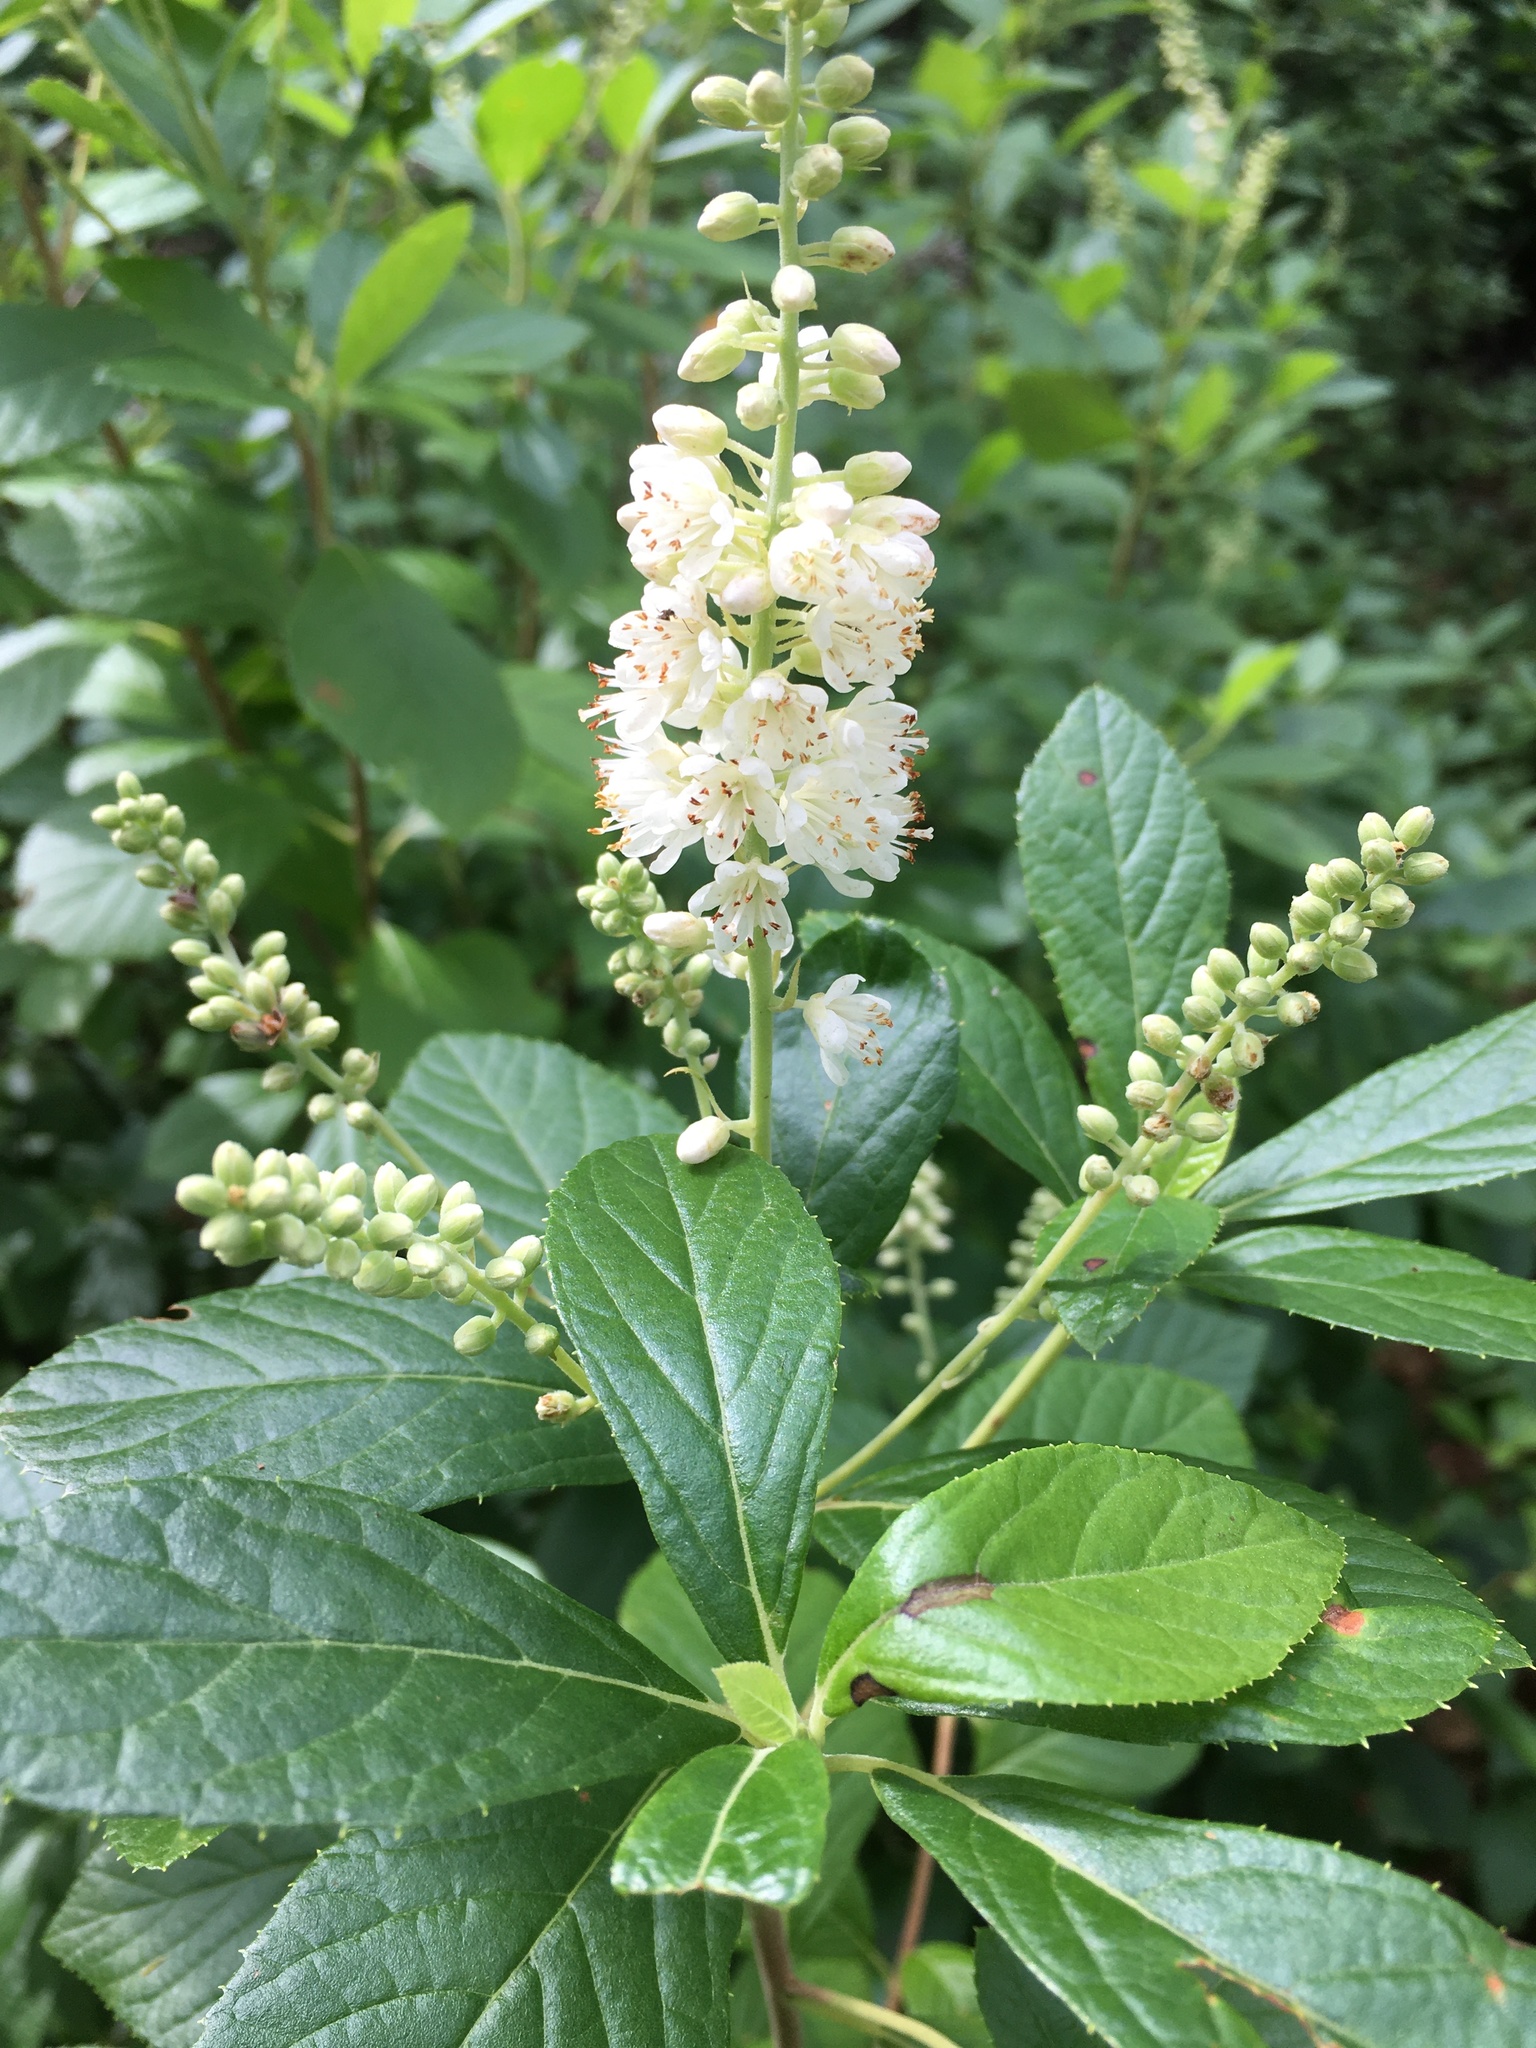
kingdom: Plantae
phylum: Tracheophyta
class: Magnoliopsida
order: Ericales
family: Clethraceae
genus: Clethra
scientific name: Clethra alnifolia
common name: Sweet pepperbush
